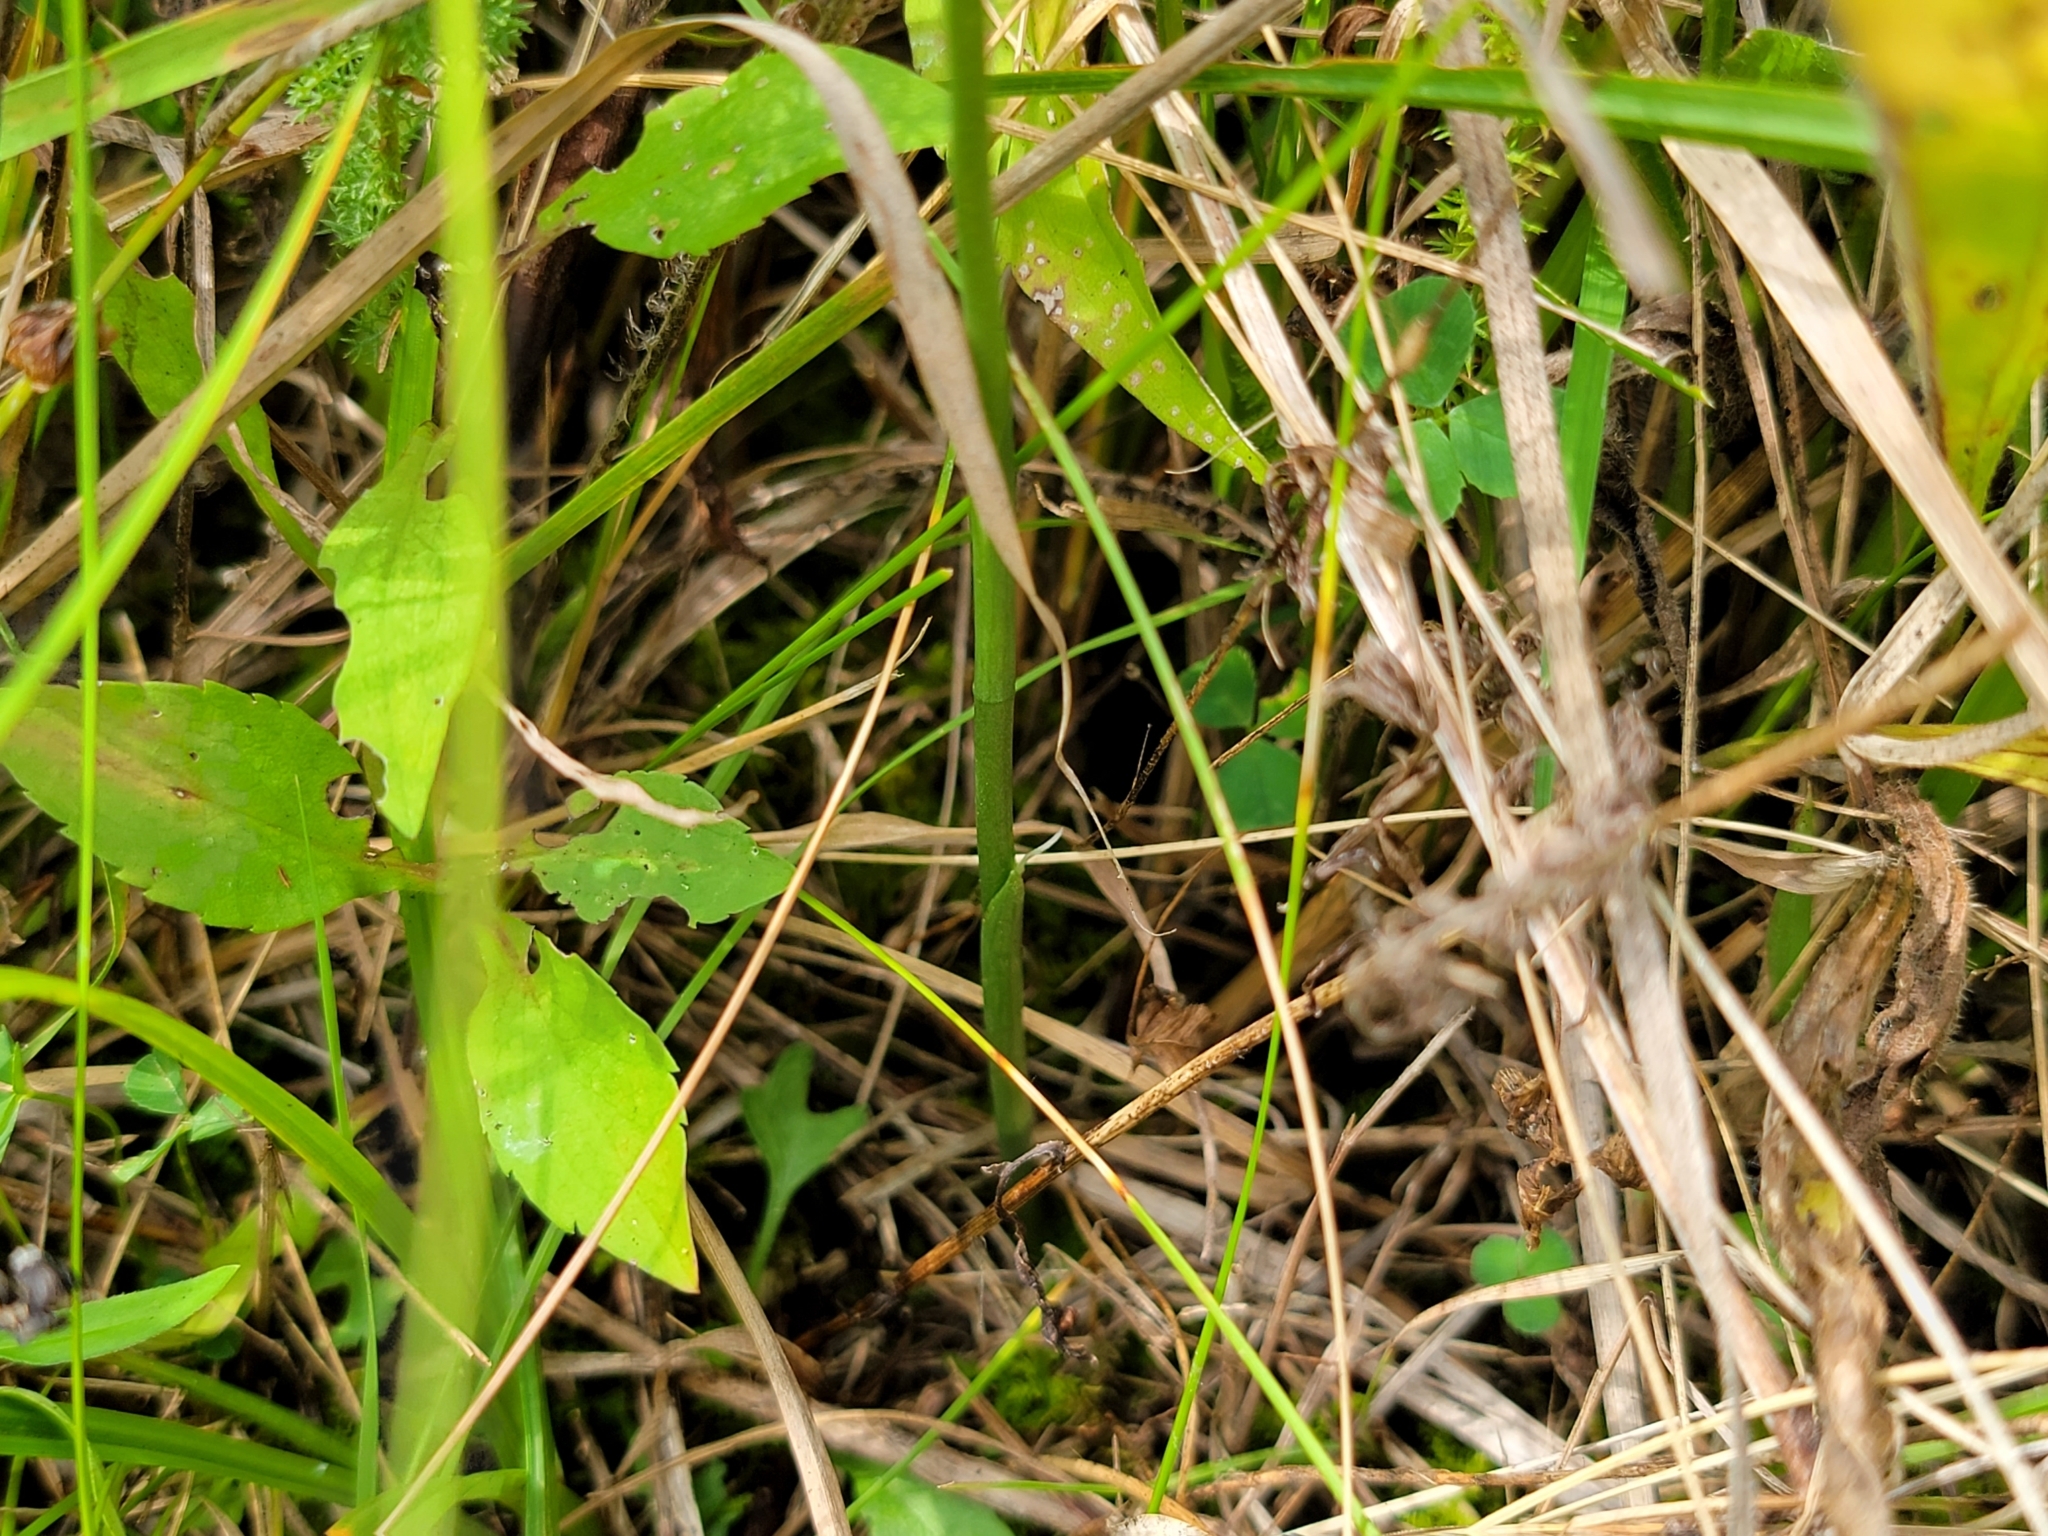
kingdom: Plantae
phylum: Tracheophyta
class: Liliopsida
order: Asparagales
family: Orchidaceae
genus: Spiranthes
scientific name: Spiranthes lacera
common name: Northern slender ladies'-tresses
